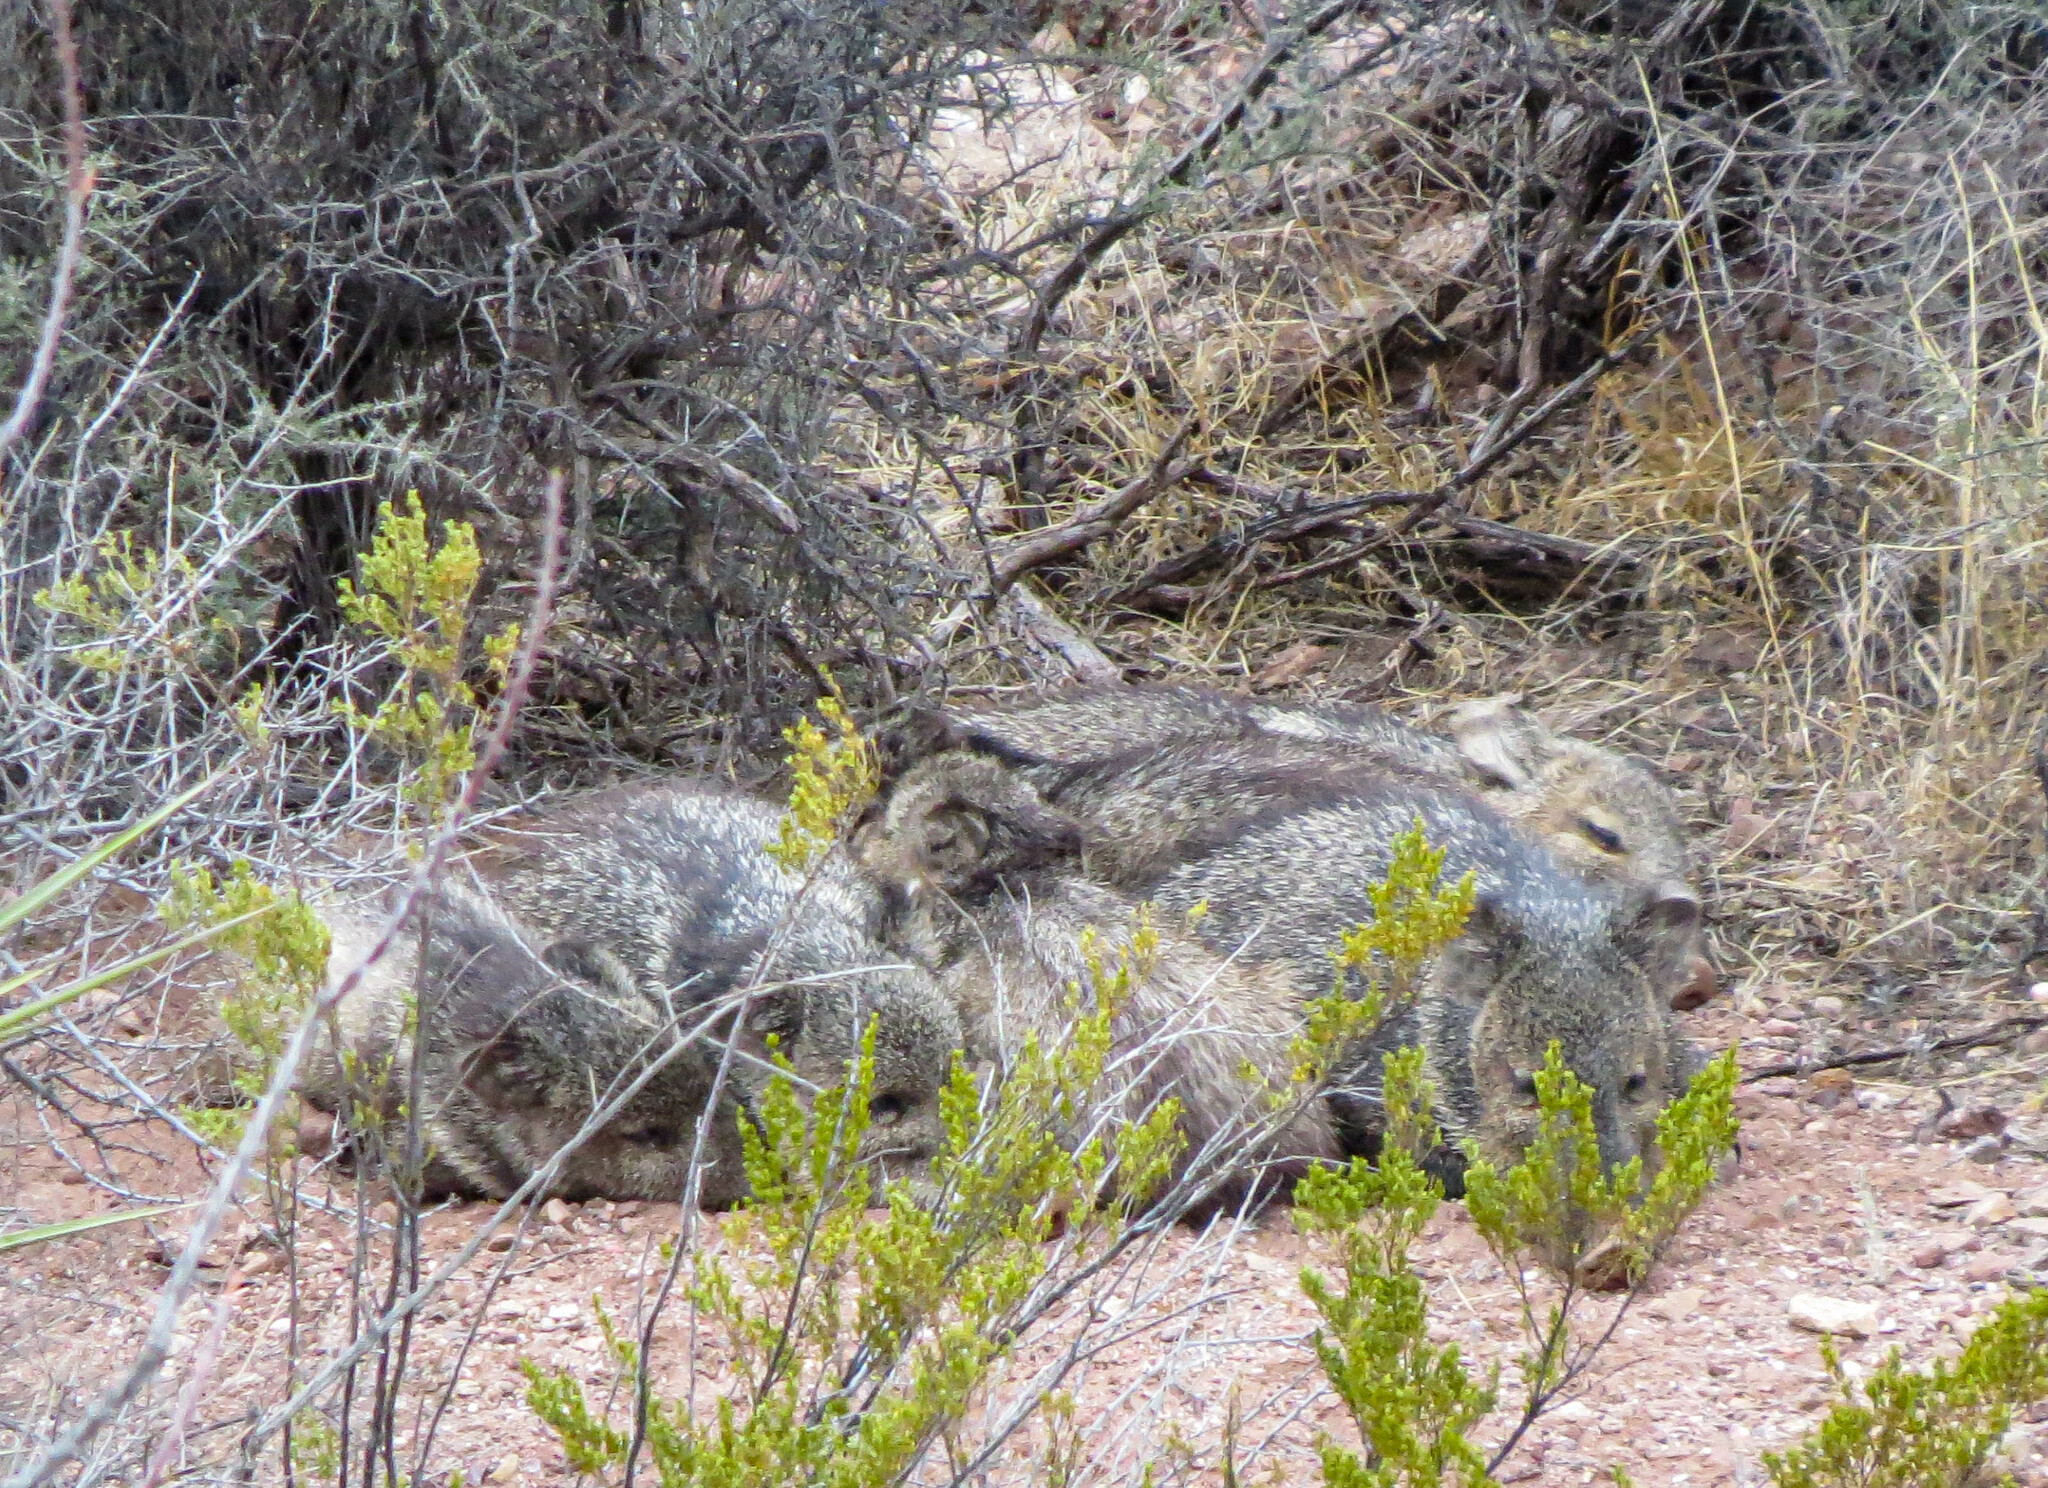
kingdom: Animalia
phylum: Chordata
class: Mammalia
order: Artiodactyla
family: Tayassuidae
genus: Pecari
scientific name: Pecari tajacu
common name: Collared peccary
